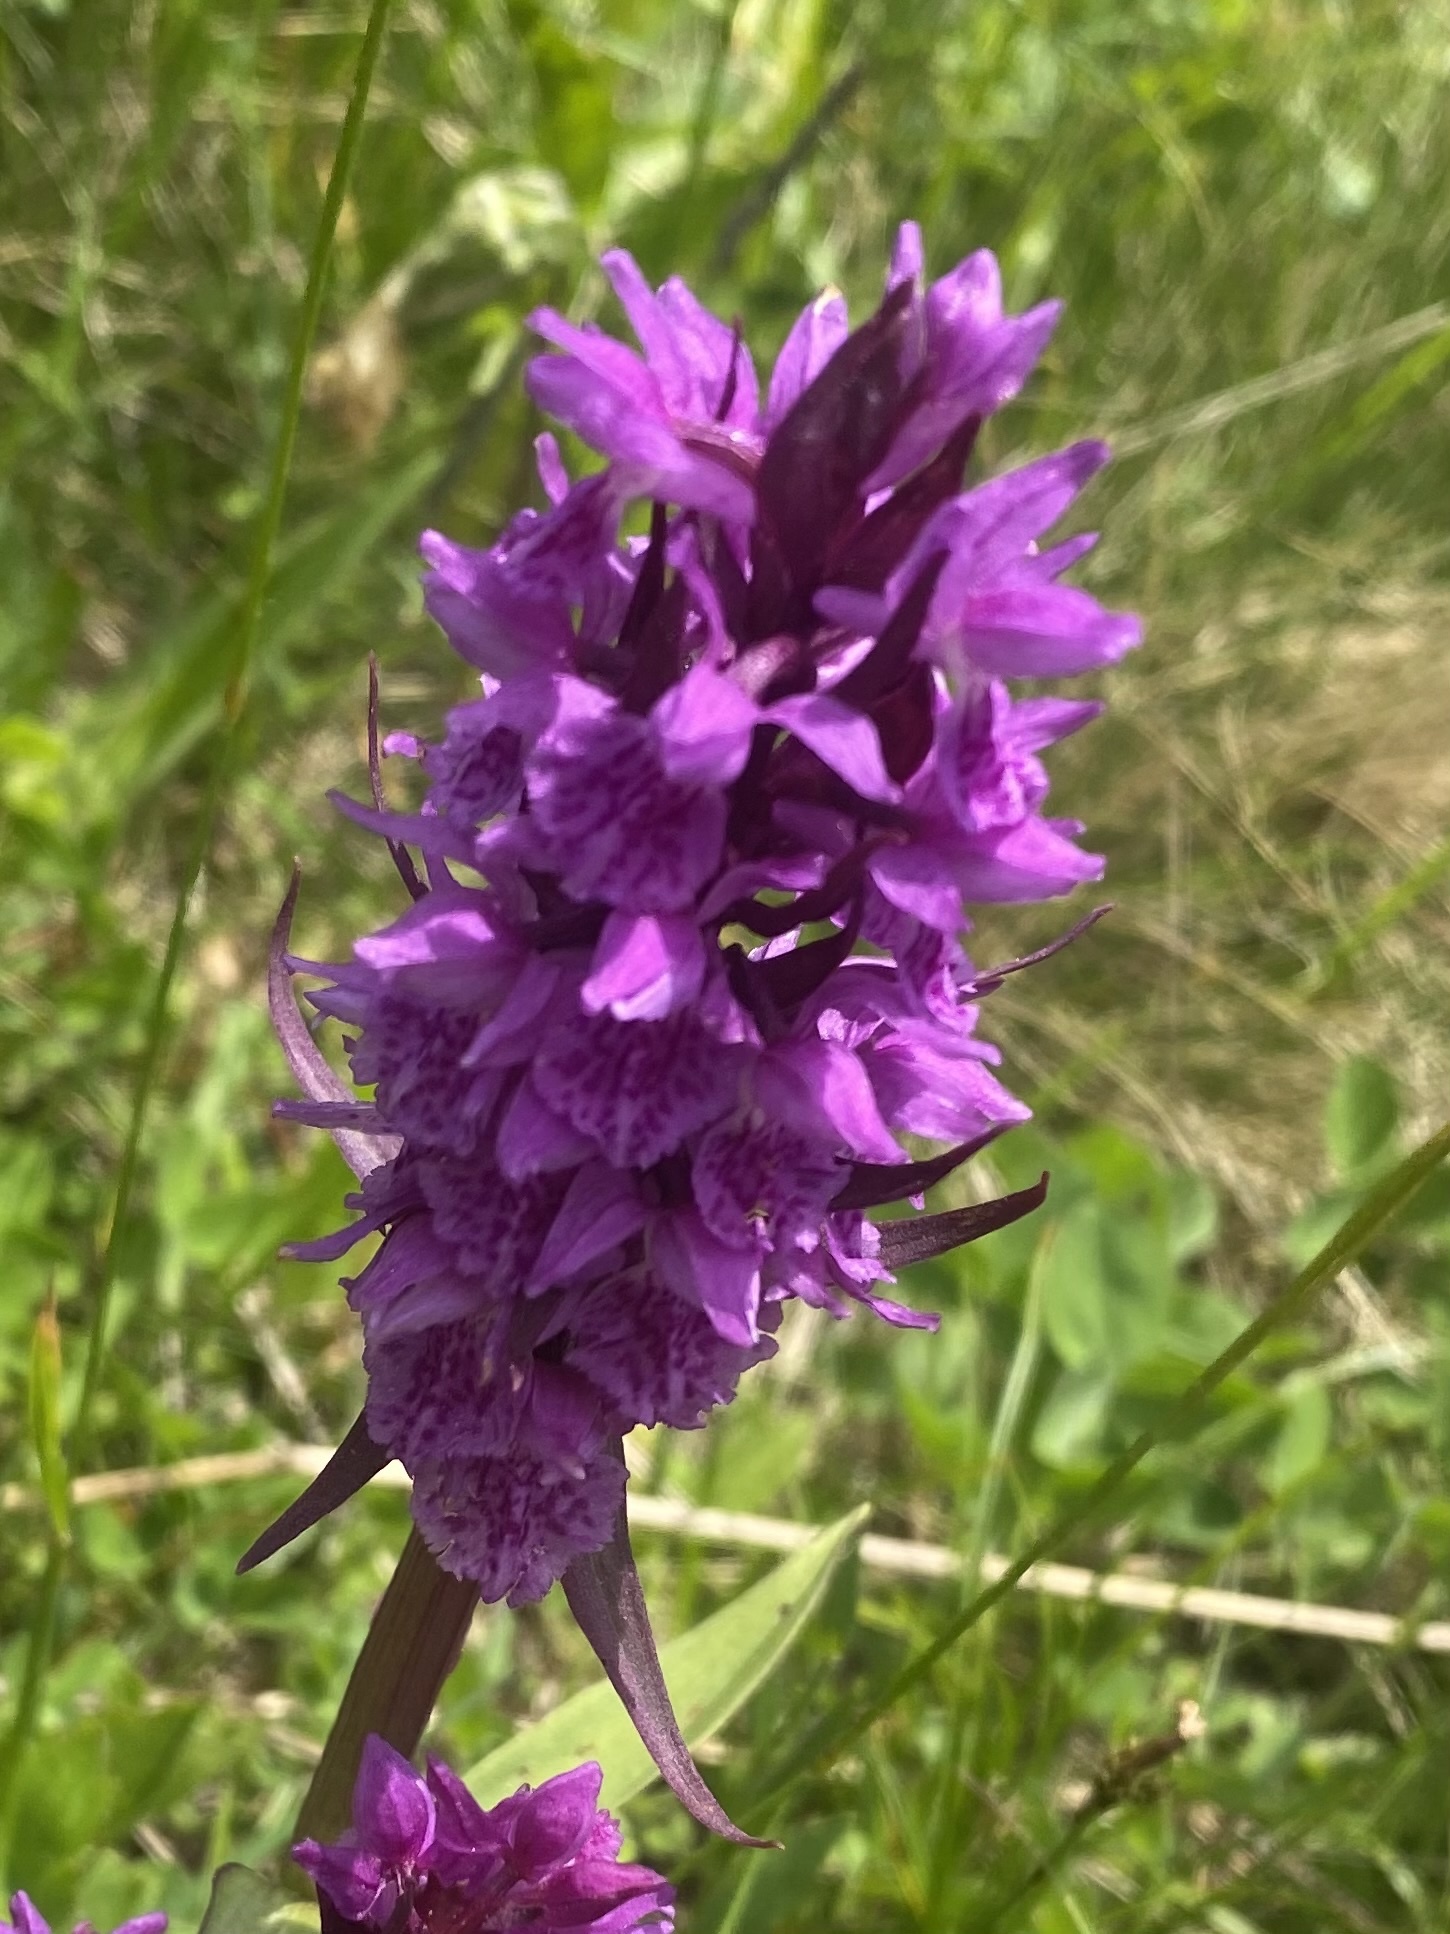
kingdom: Plantae
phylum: Tracheophyta
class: Liliopsida
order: Asparagales
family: Orchidaceae
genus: Dactylorhiza
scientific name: Dactylorhiza euxina
